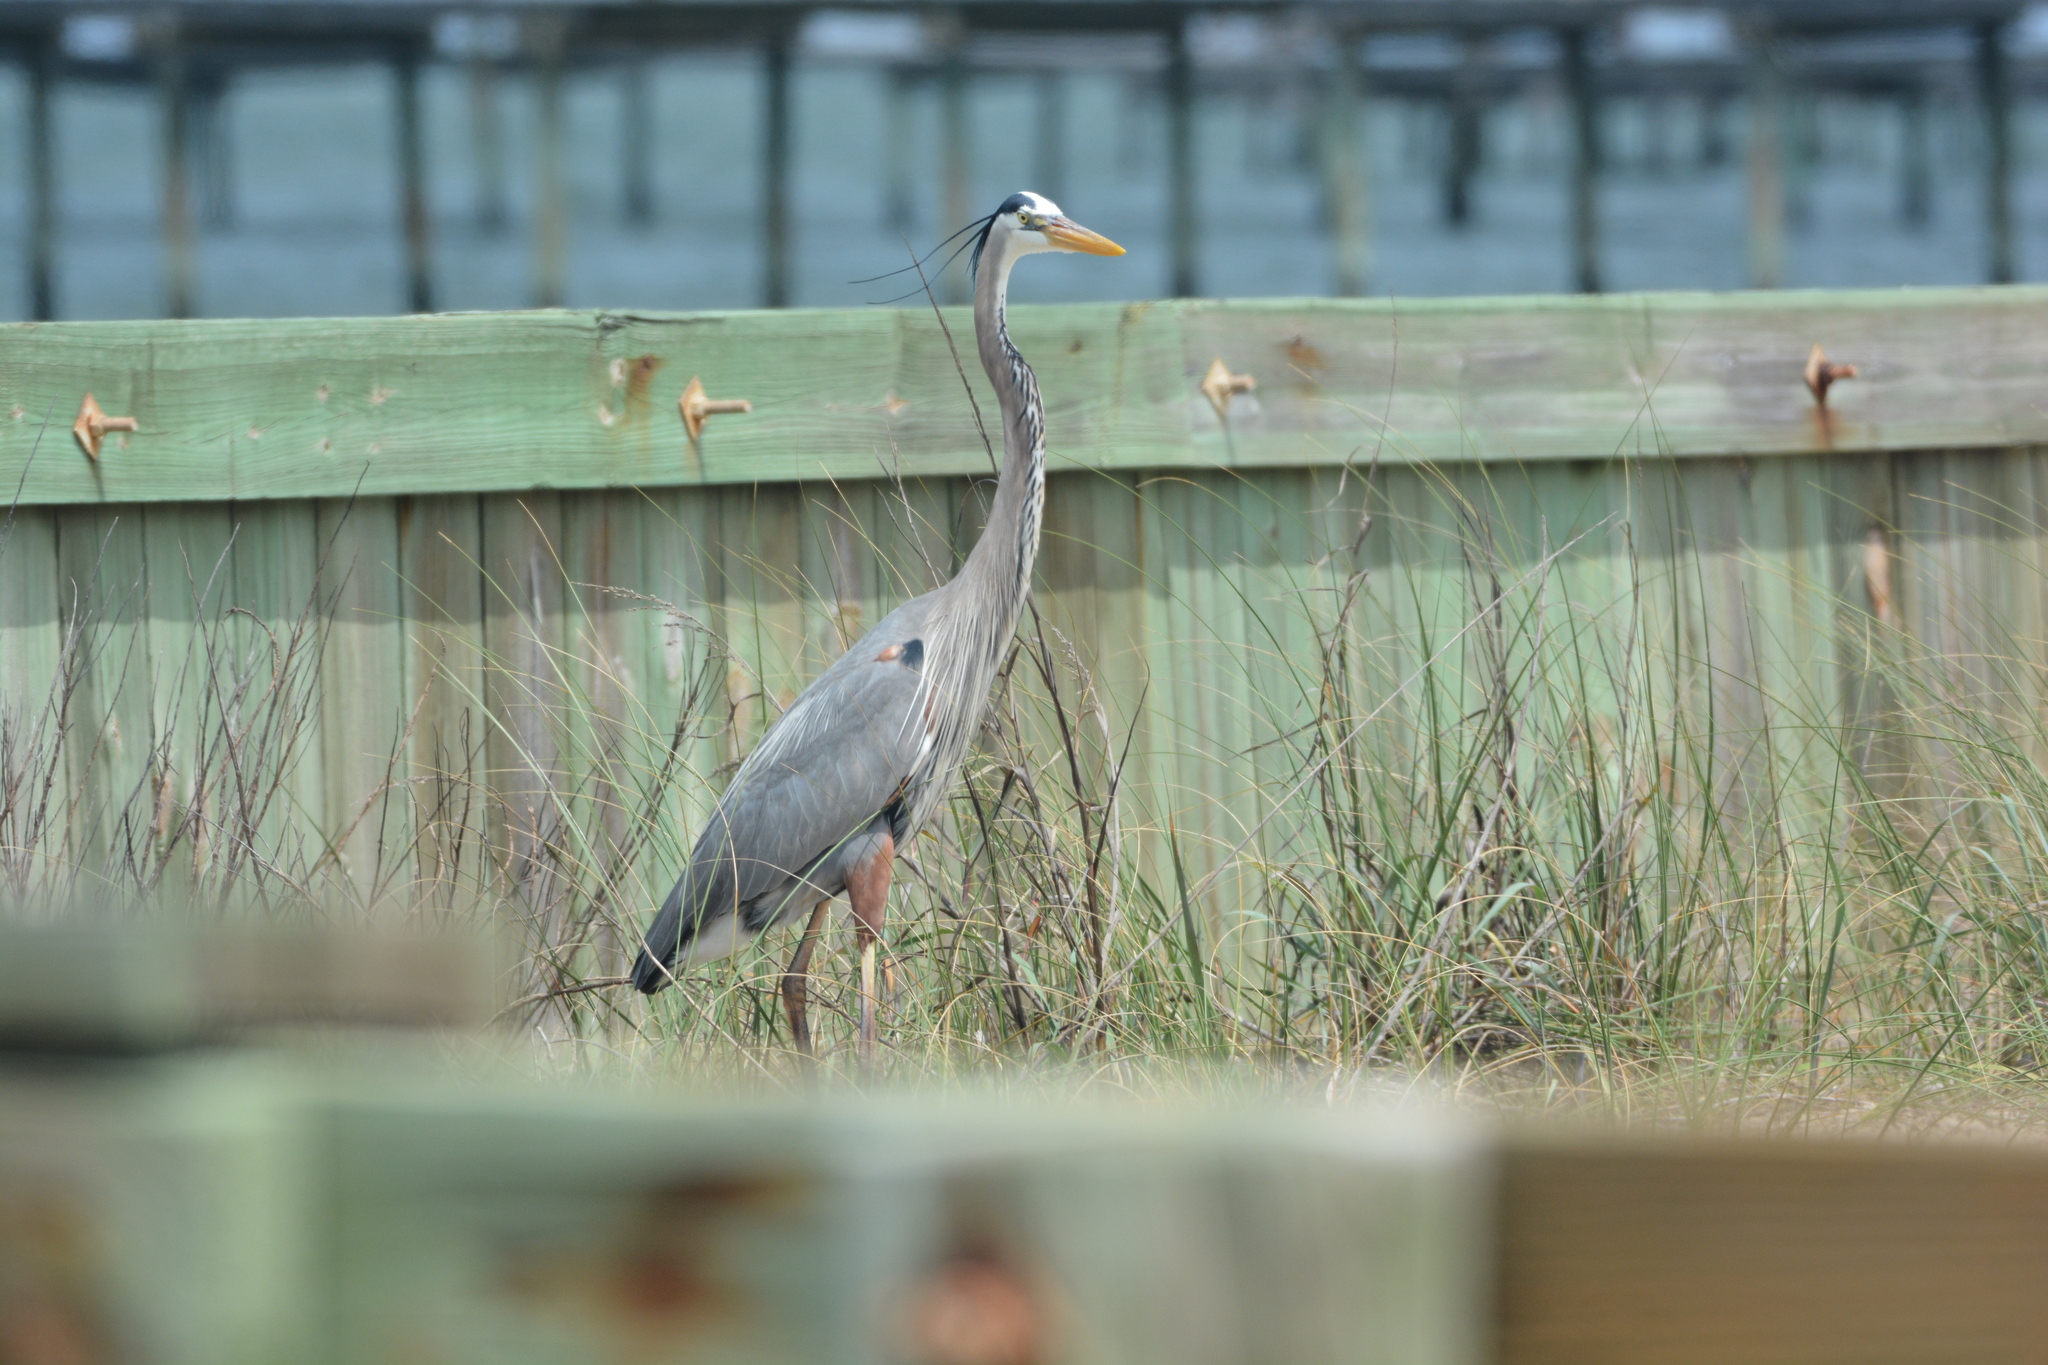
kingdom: Animalia
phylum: Chordata
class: Aves
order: Pelecaniformes
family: Ardeidae
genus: Ardea
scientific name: Ardea herodias
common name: Great blue heron
